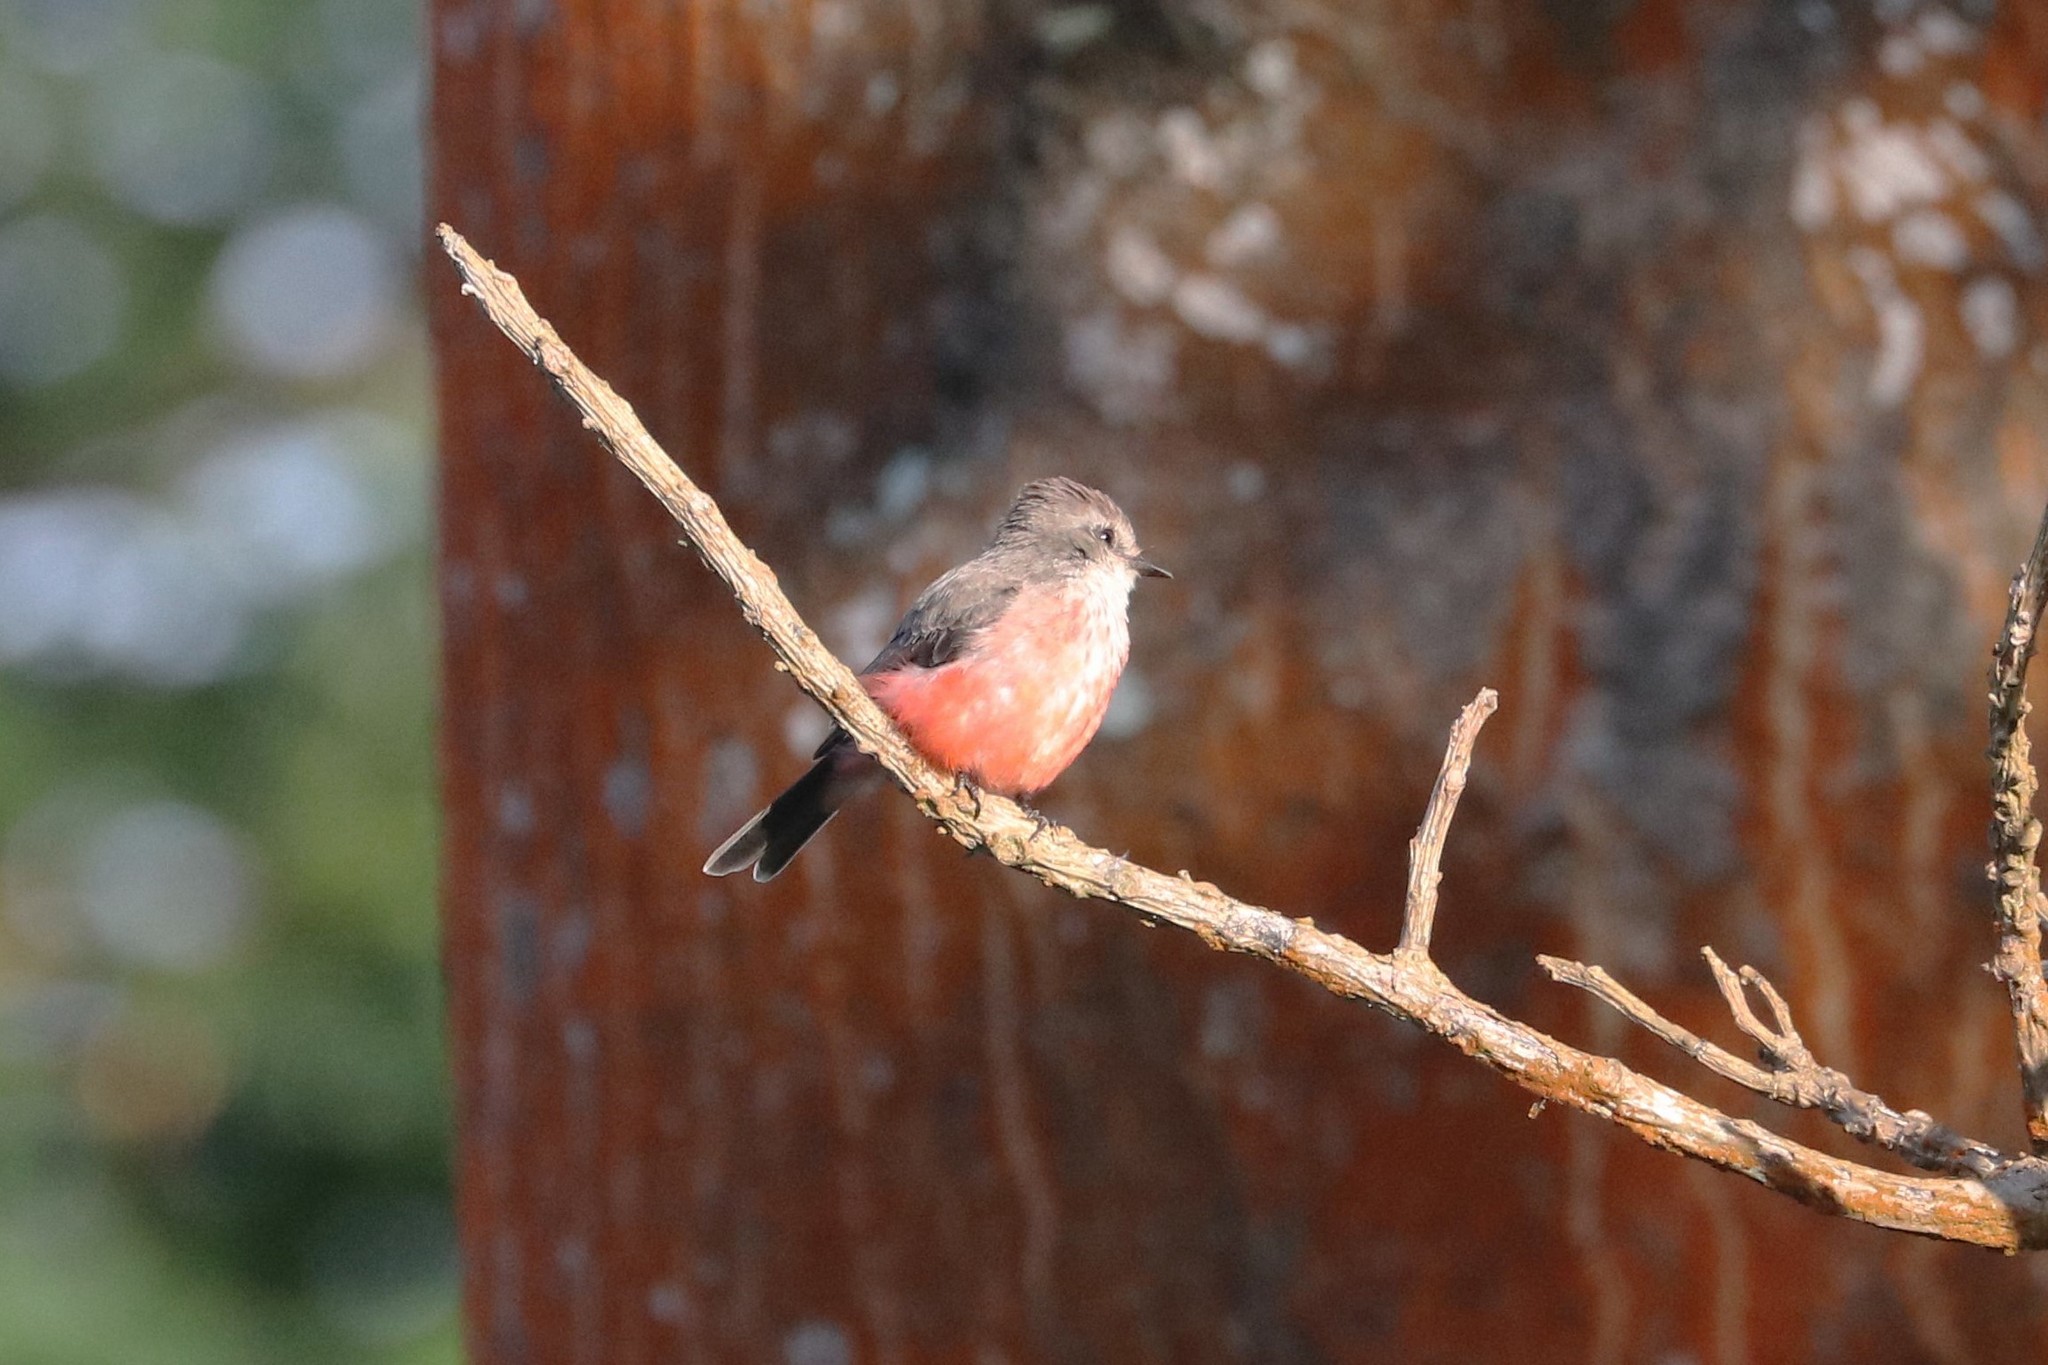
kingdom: Animalia
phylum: Chordata
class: Aves
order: Passeriformes
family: Tyrannidae
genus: Pyrocephalus
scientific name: Pyrocephalus rubinus
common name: Vermilion flycatcher
